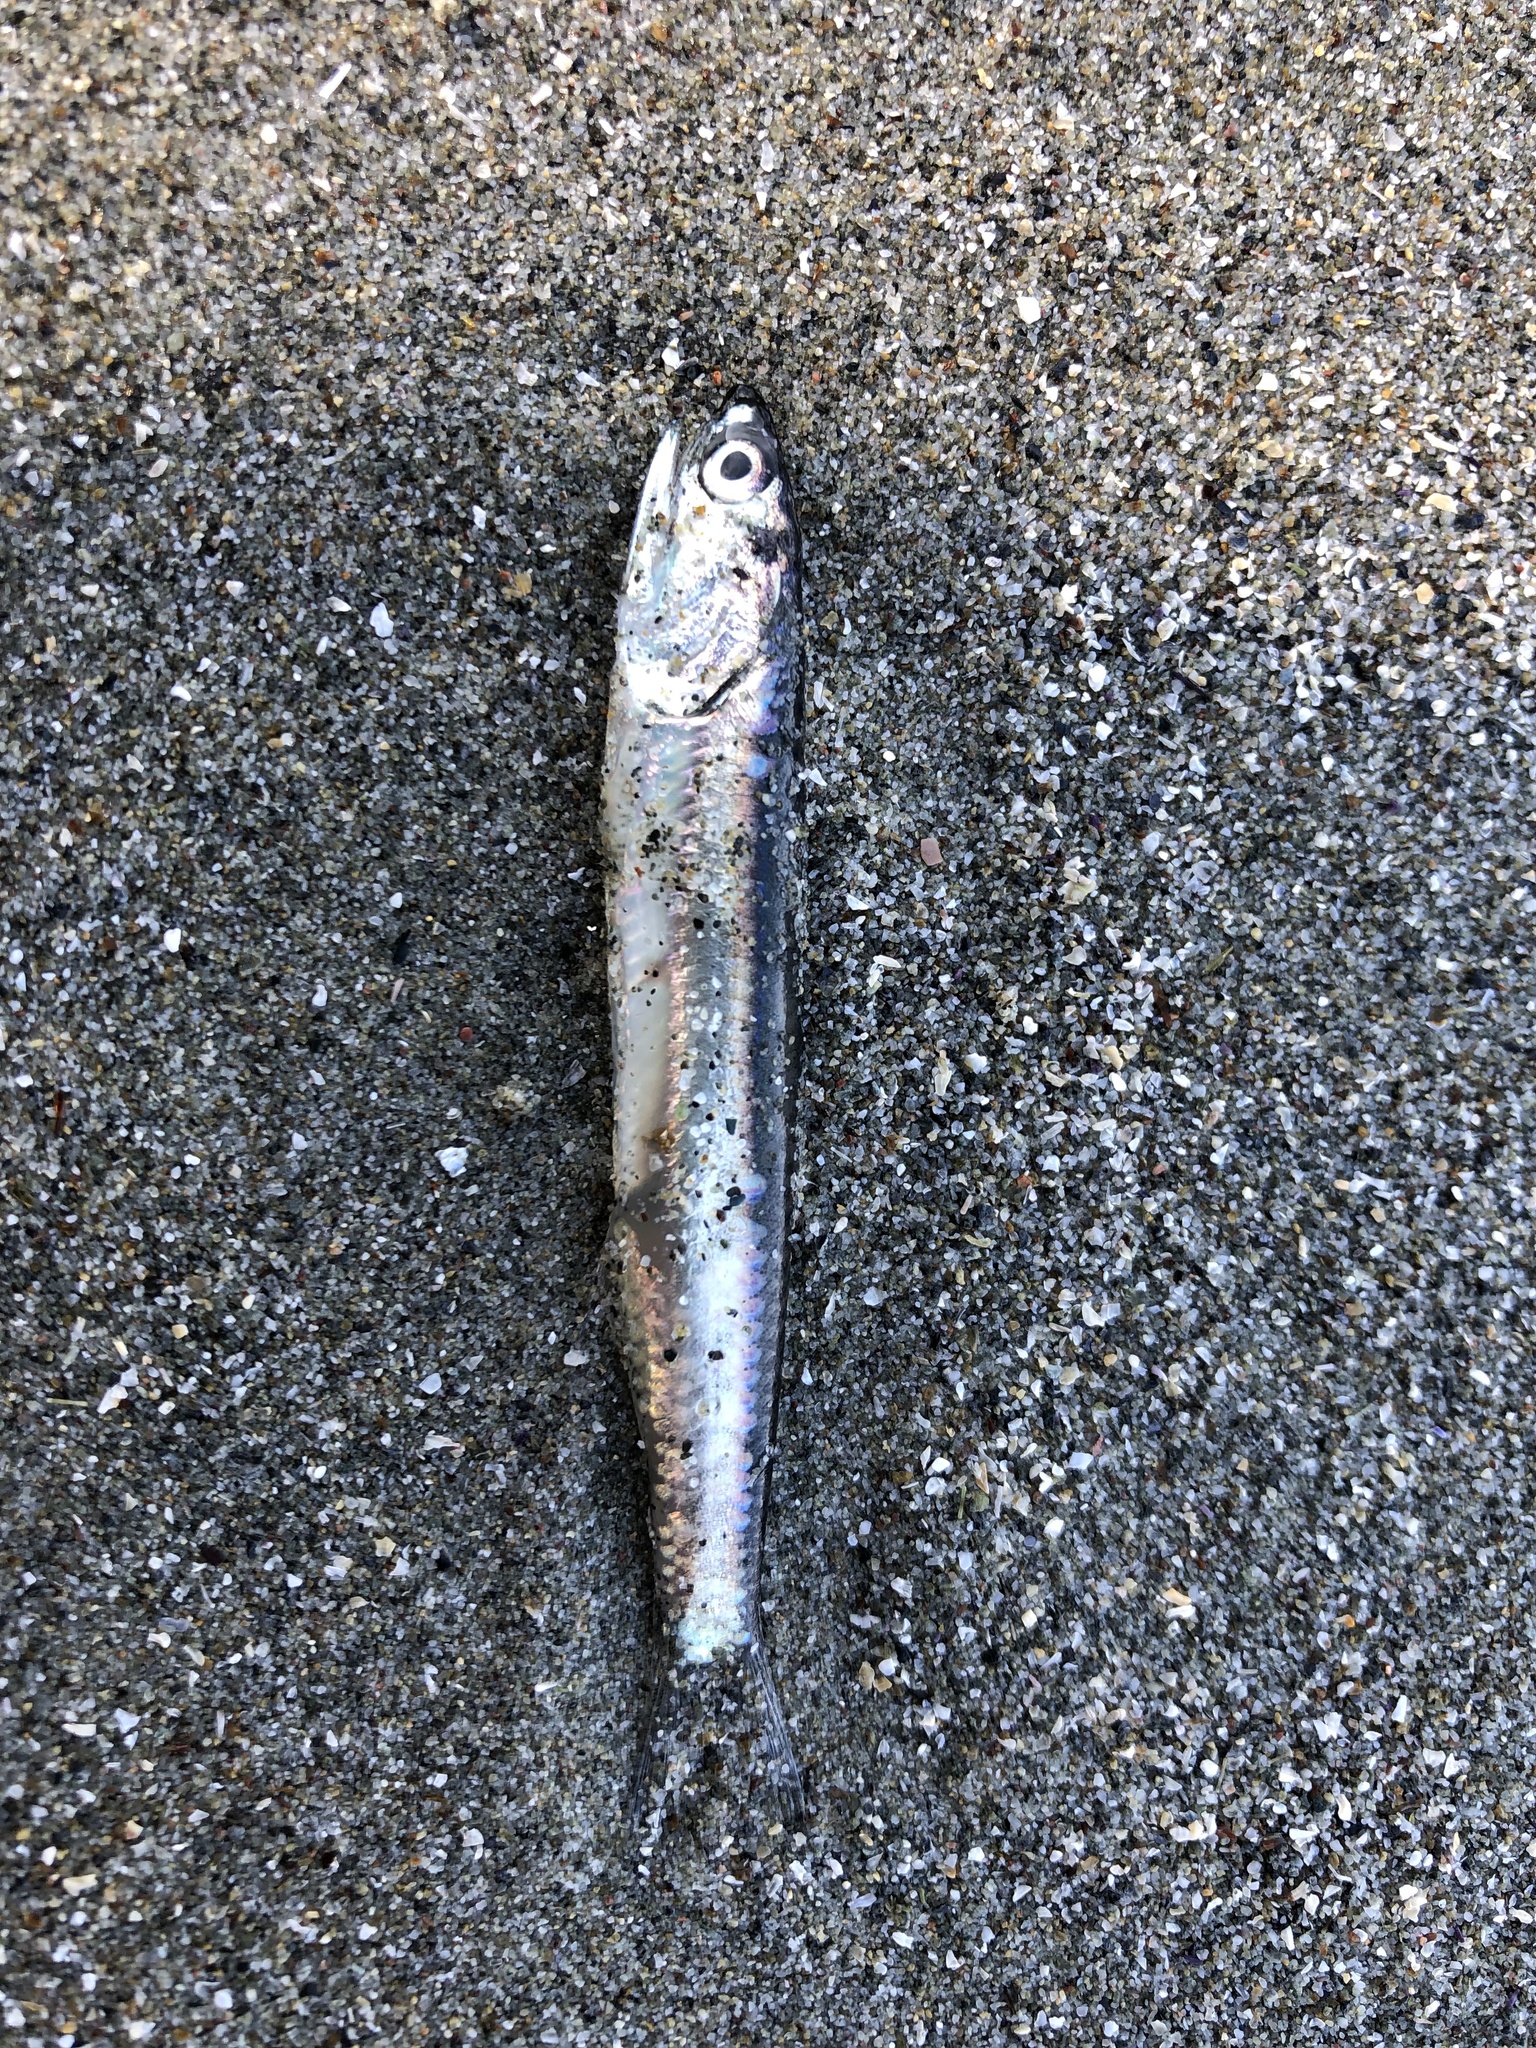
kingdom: Animalia
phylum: Chordata
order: Clupeiformes
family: Engraulidae
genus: Engraulis
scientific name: Engraulis mordax
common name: Northern anchovy
